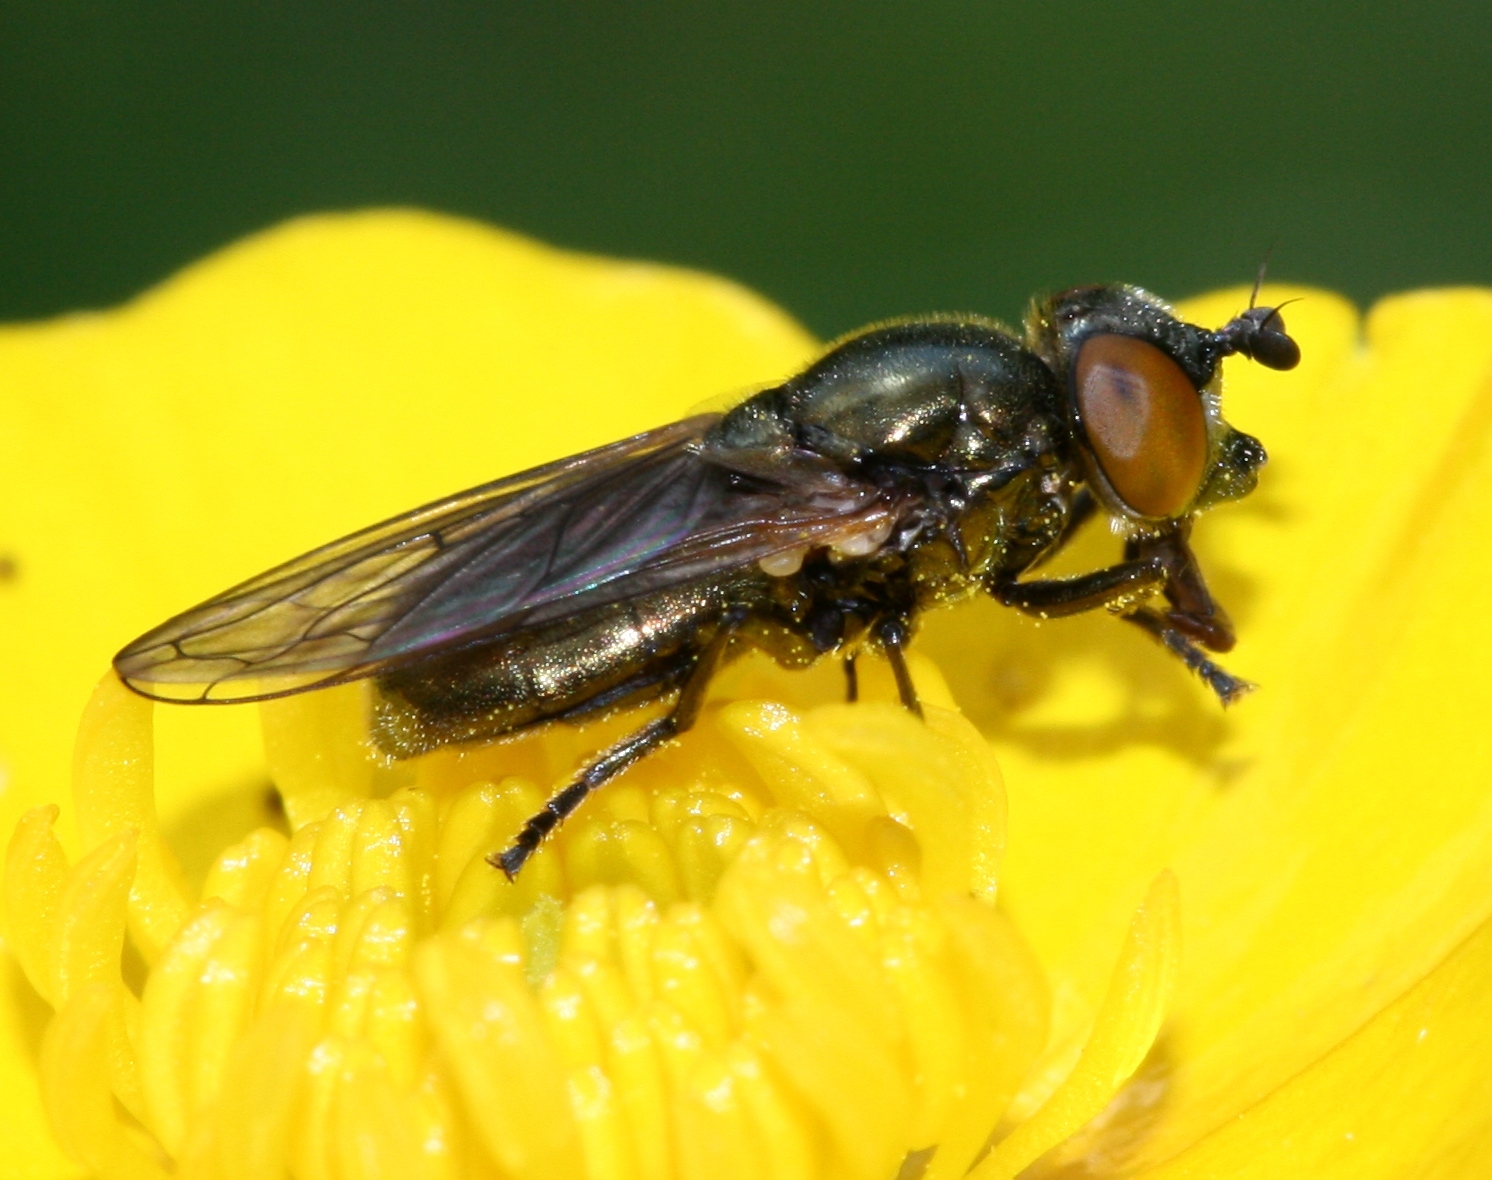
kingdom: Animalia
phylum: Arthropoda
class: Insecta
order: Diptera
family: Syrphidae
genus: Lejogaster
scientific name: Lejogaster metallina
